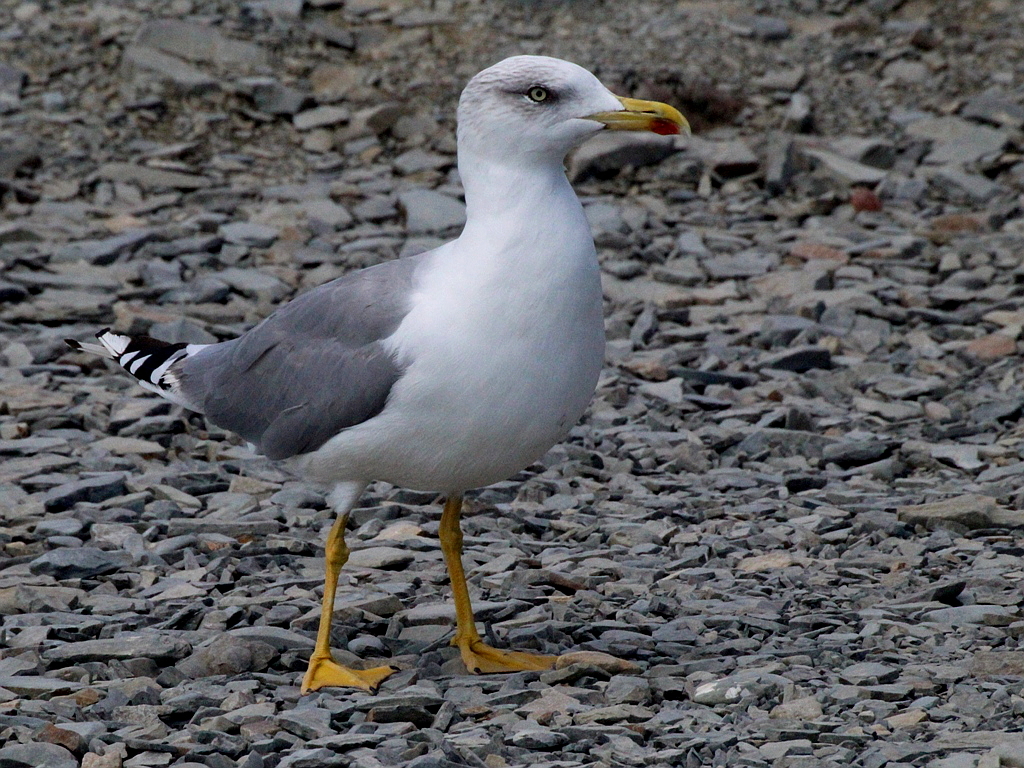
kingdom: Animalia
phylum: Chordata
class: Aves
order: Charadriiformes
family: Laridae
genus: Larus
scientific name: Larus michahellis
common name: Yellow-legged gull
